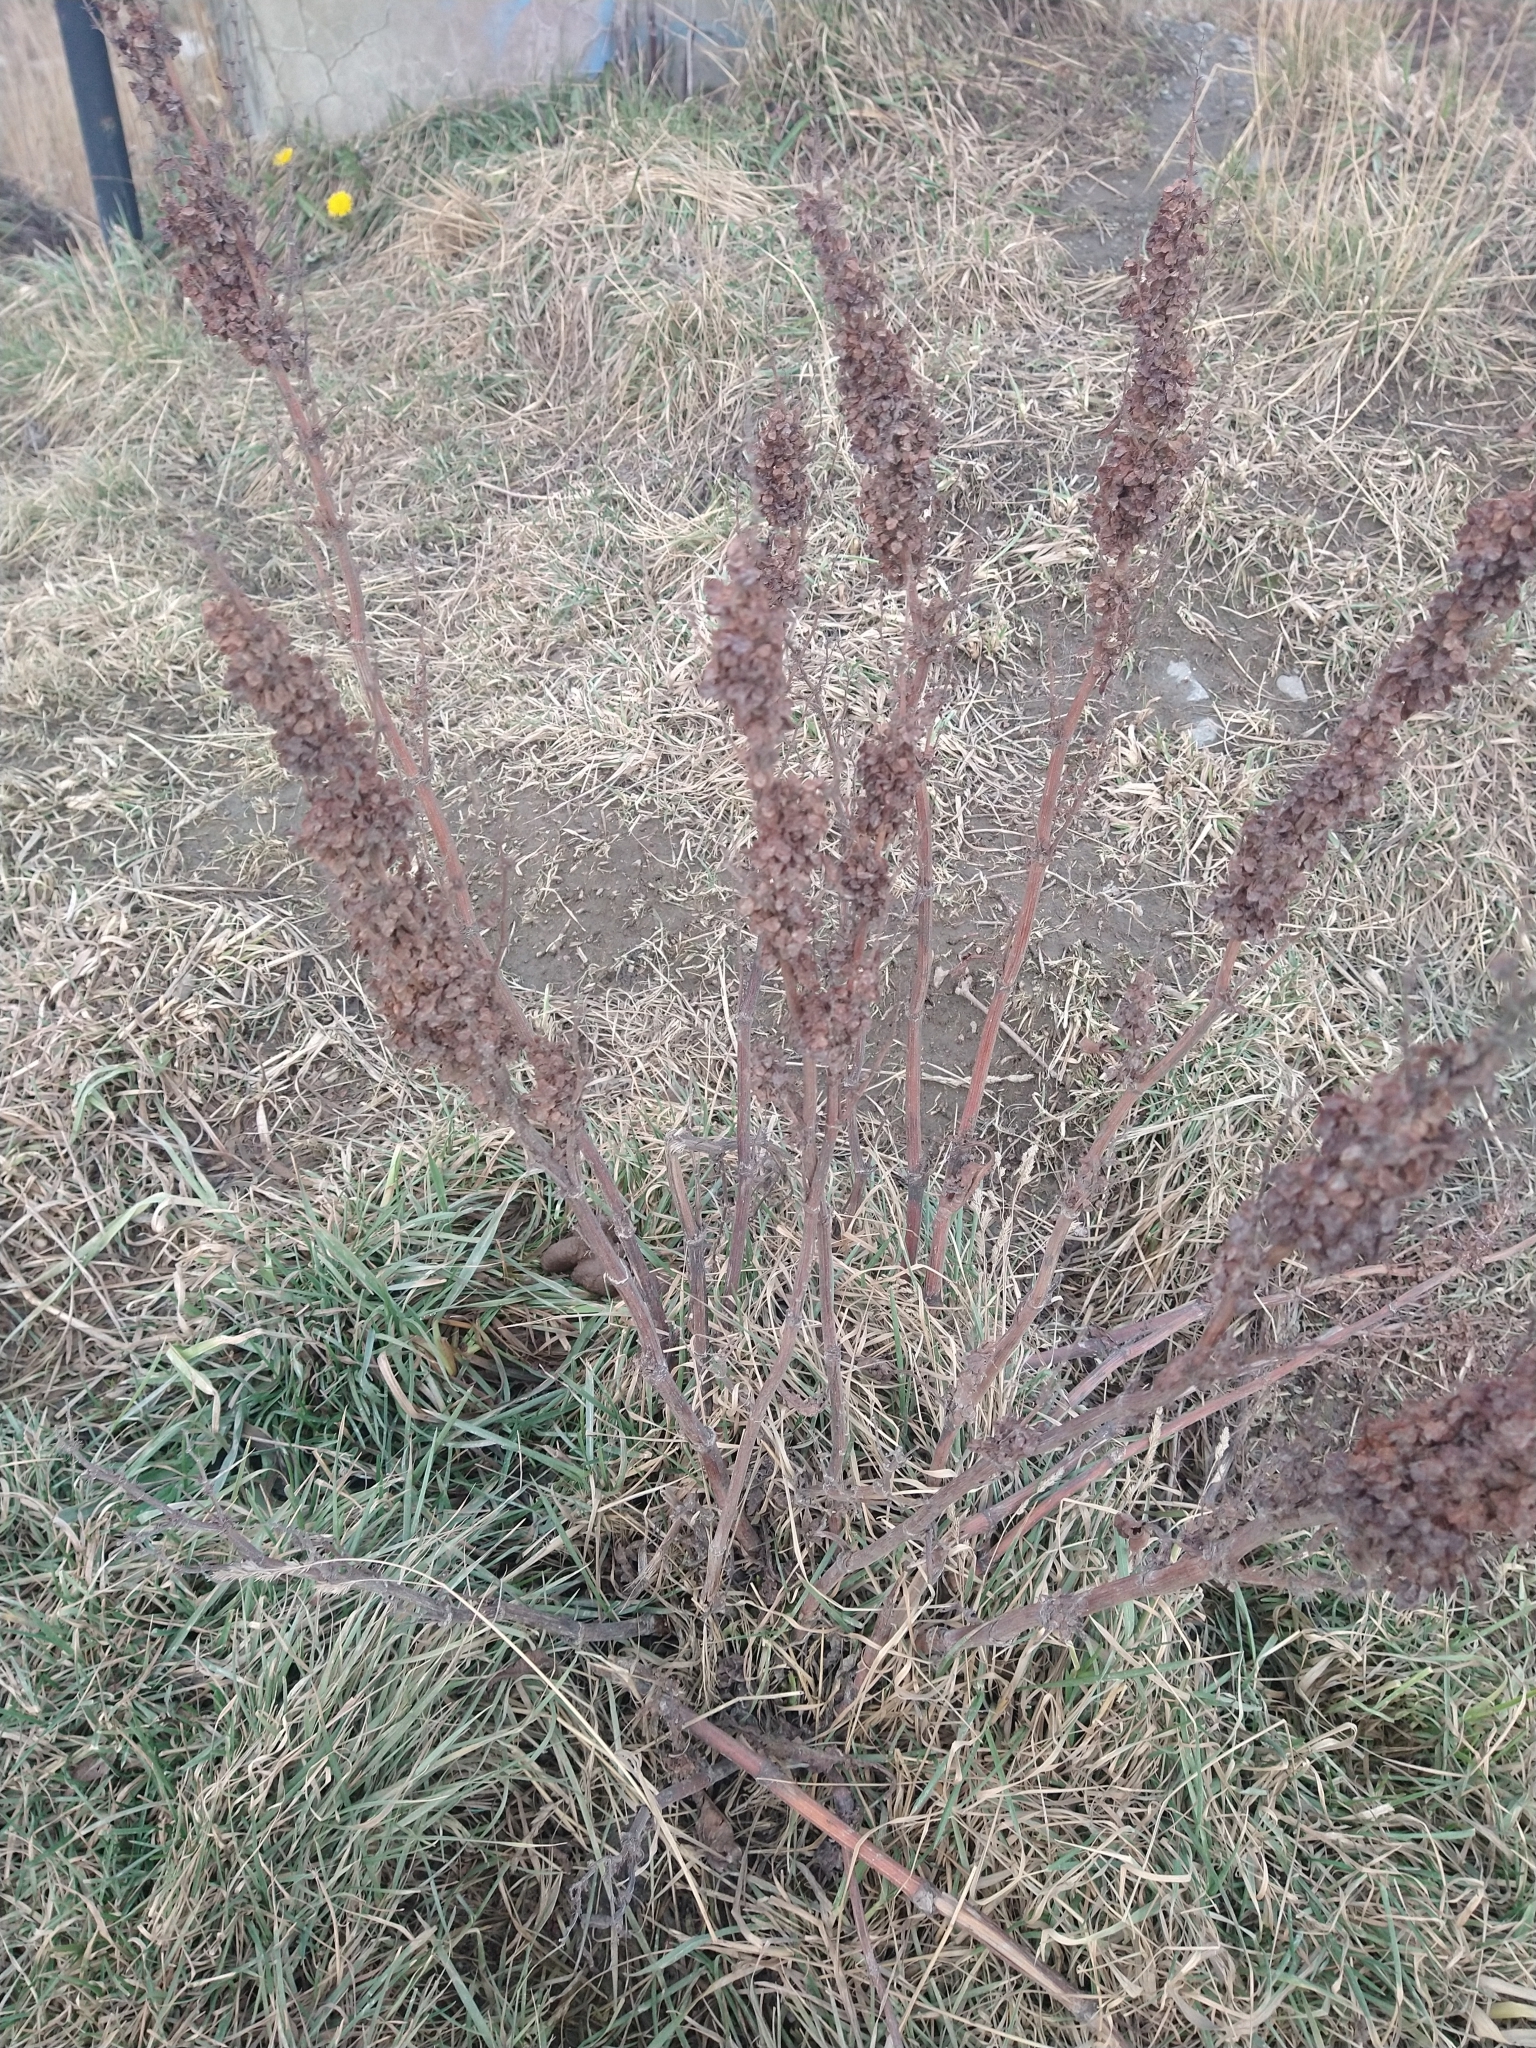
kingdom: Plantae
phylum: Tracheophyta
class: Magnoliopsida
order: Caryophyllales
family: Polygonaceae
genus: Rumex
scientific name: Rumex crispus
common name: Curled dock
